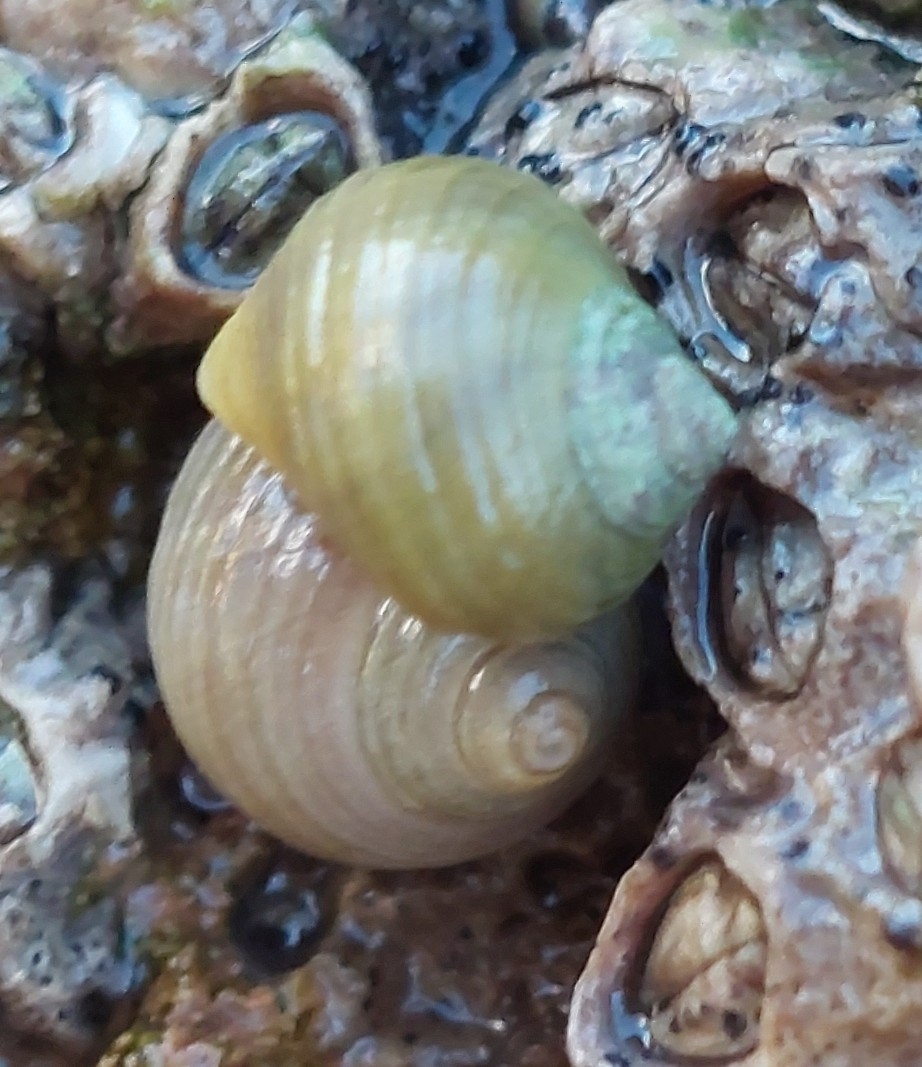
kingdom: Animalia
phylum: Mollusca
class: Gastropoda
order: Littorinimorpha
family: Littorinidae
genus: Littorina
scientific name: Littorina compressa
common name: Black-lined periwinkle
